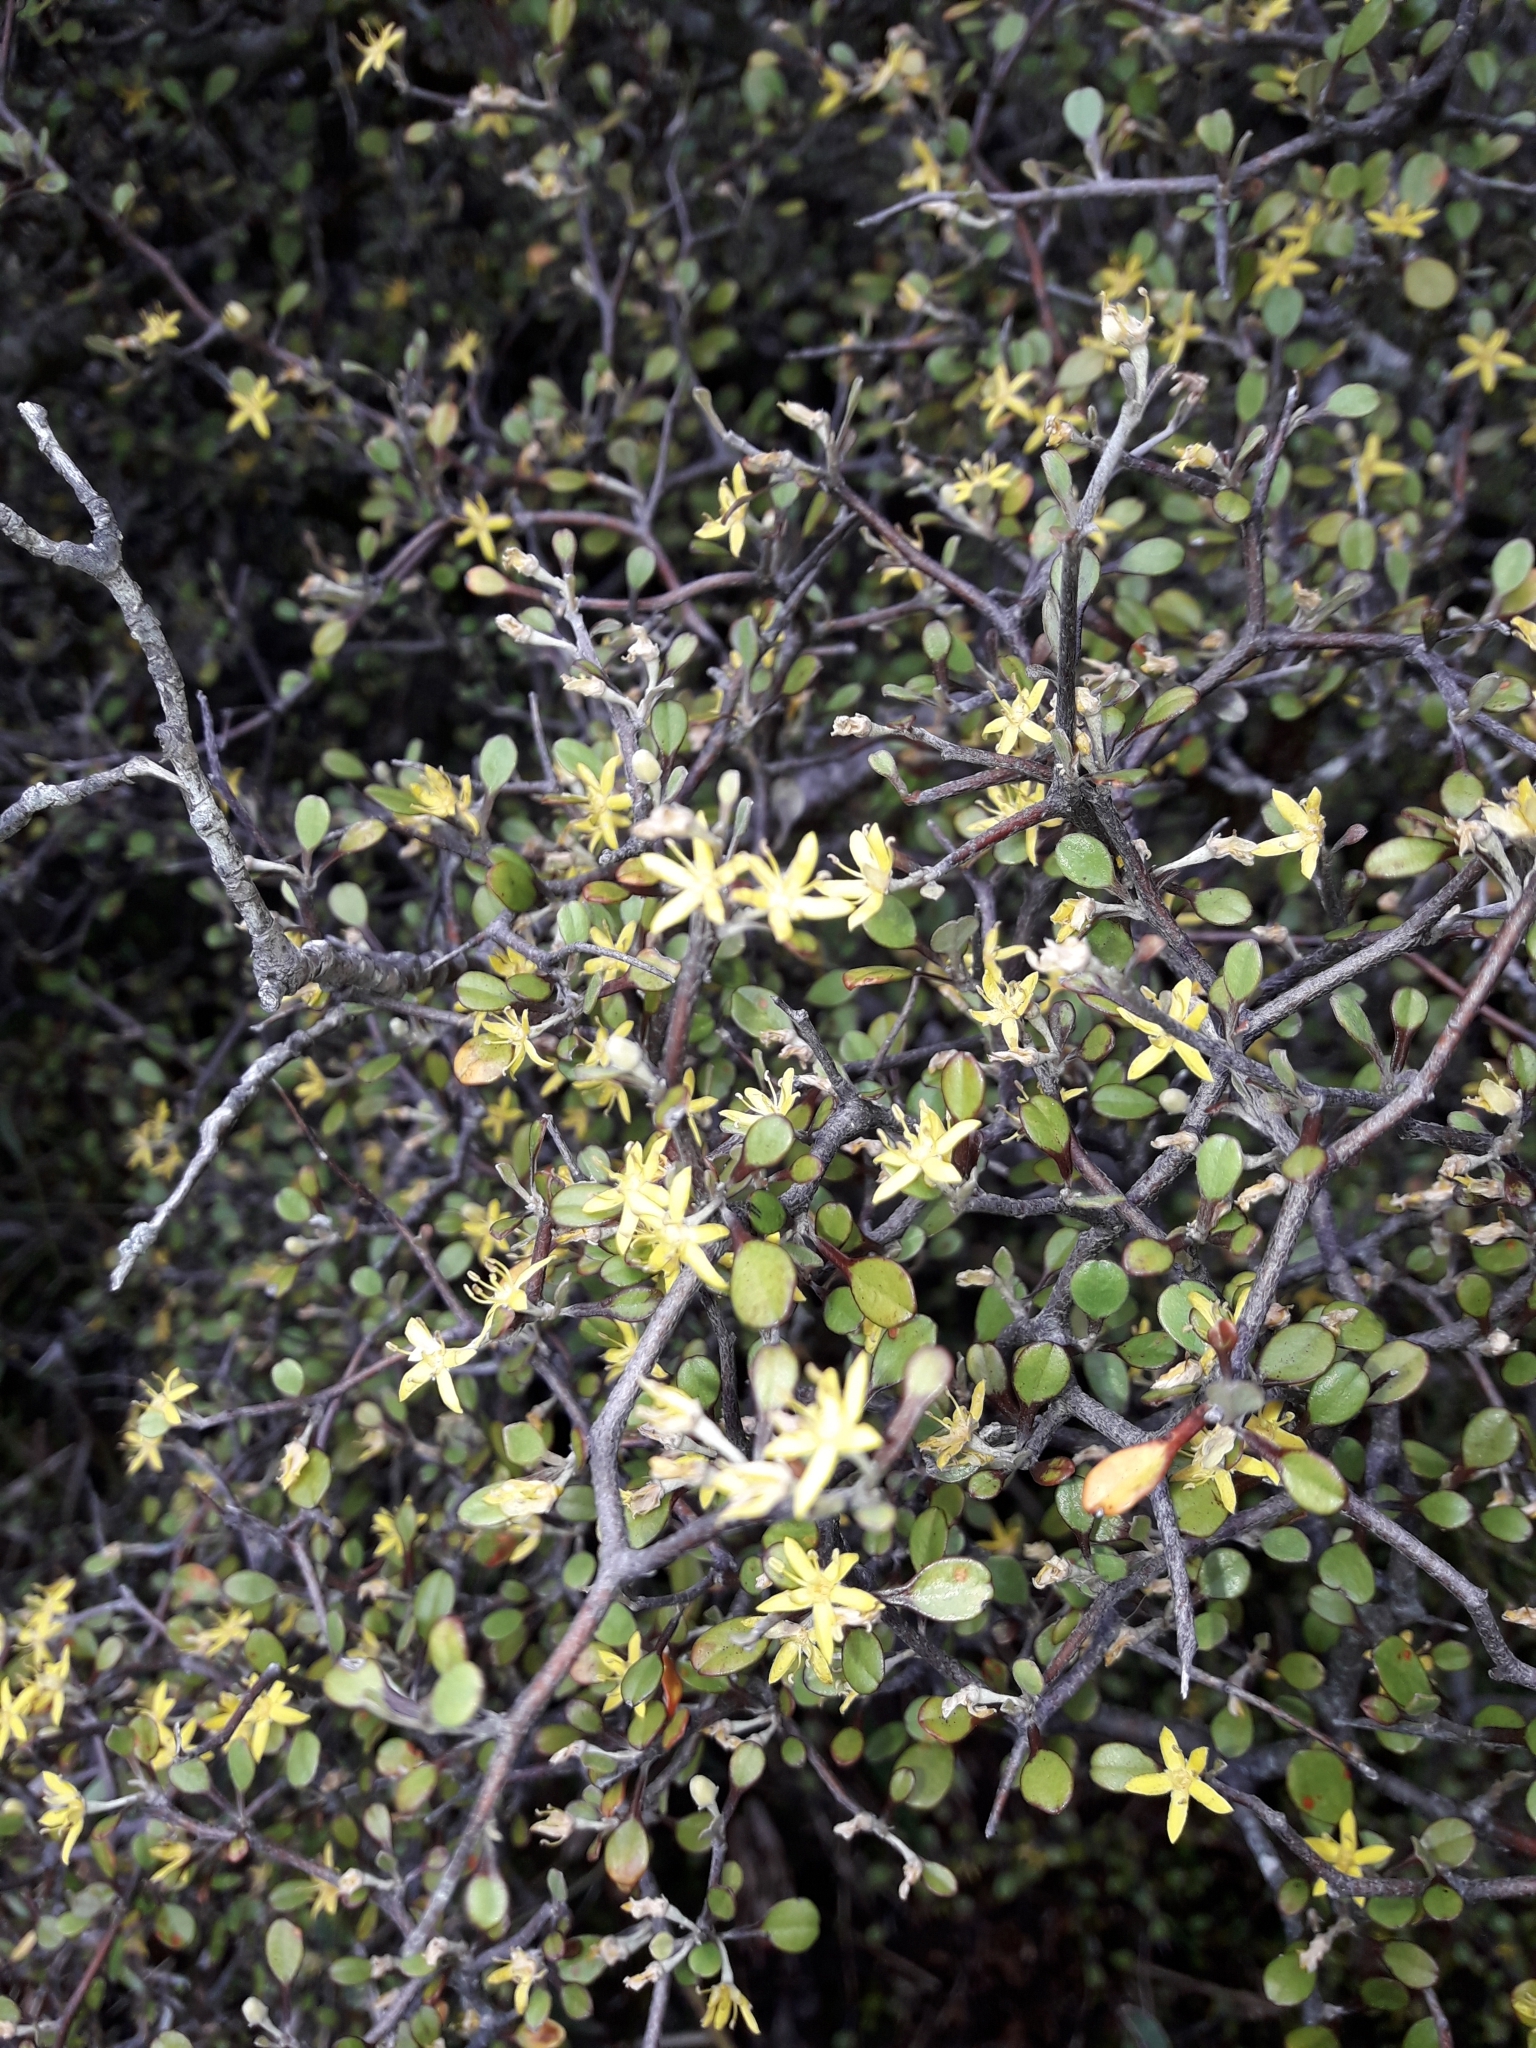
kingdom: Plantae
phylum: Tracheophyta
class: Magnoliopsida
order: Asterales
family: Argophyllaceae
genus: Corokia
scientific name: Corokia cotoneaster
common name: Wire nettingbush
